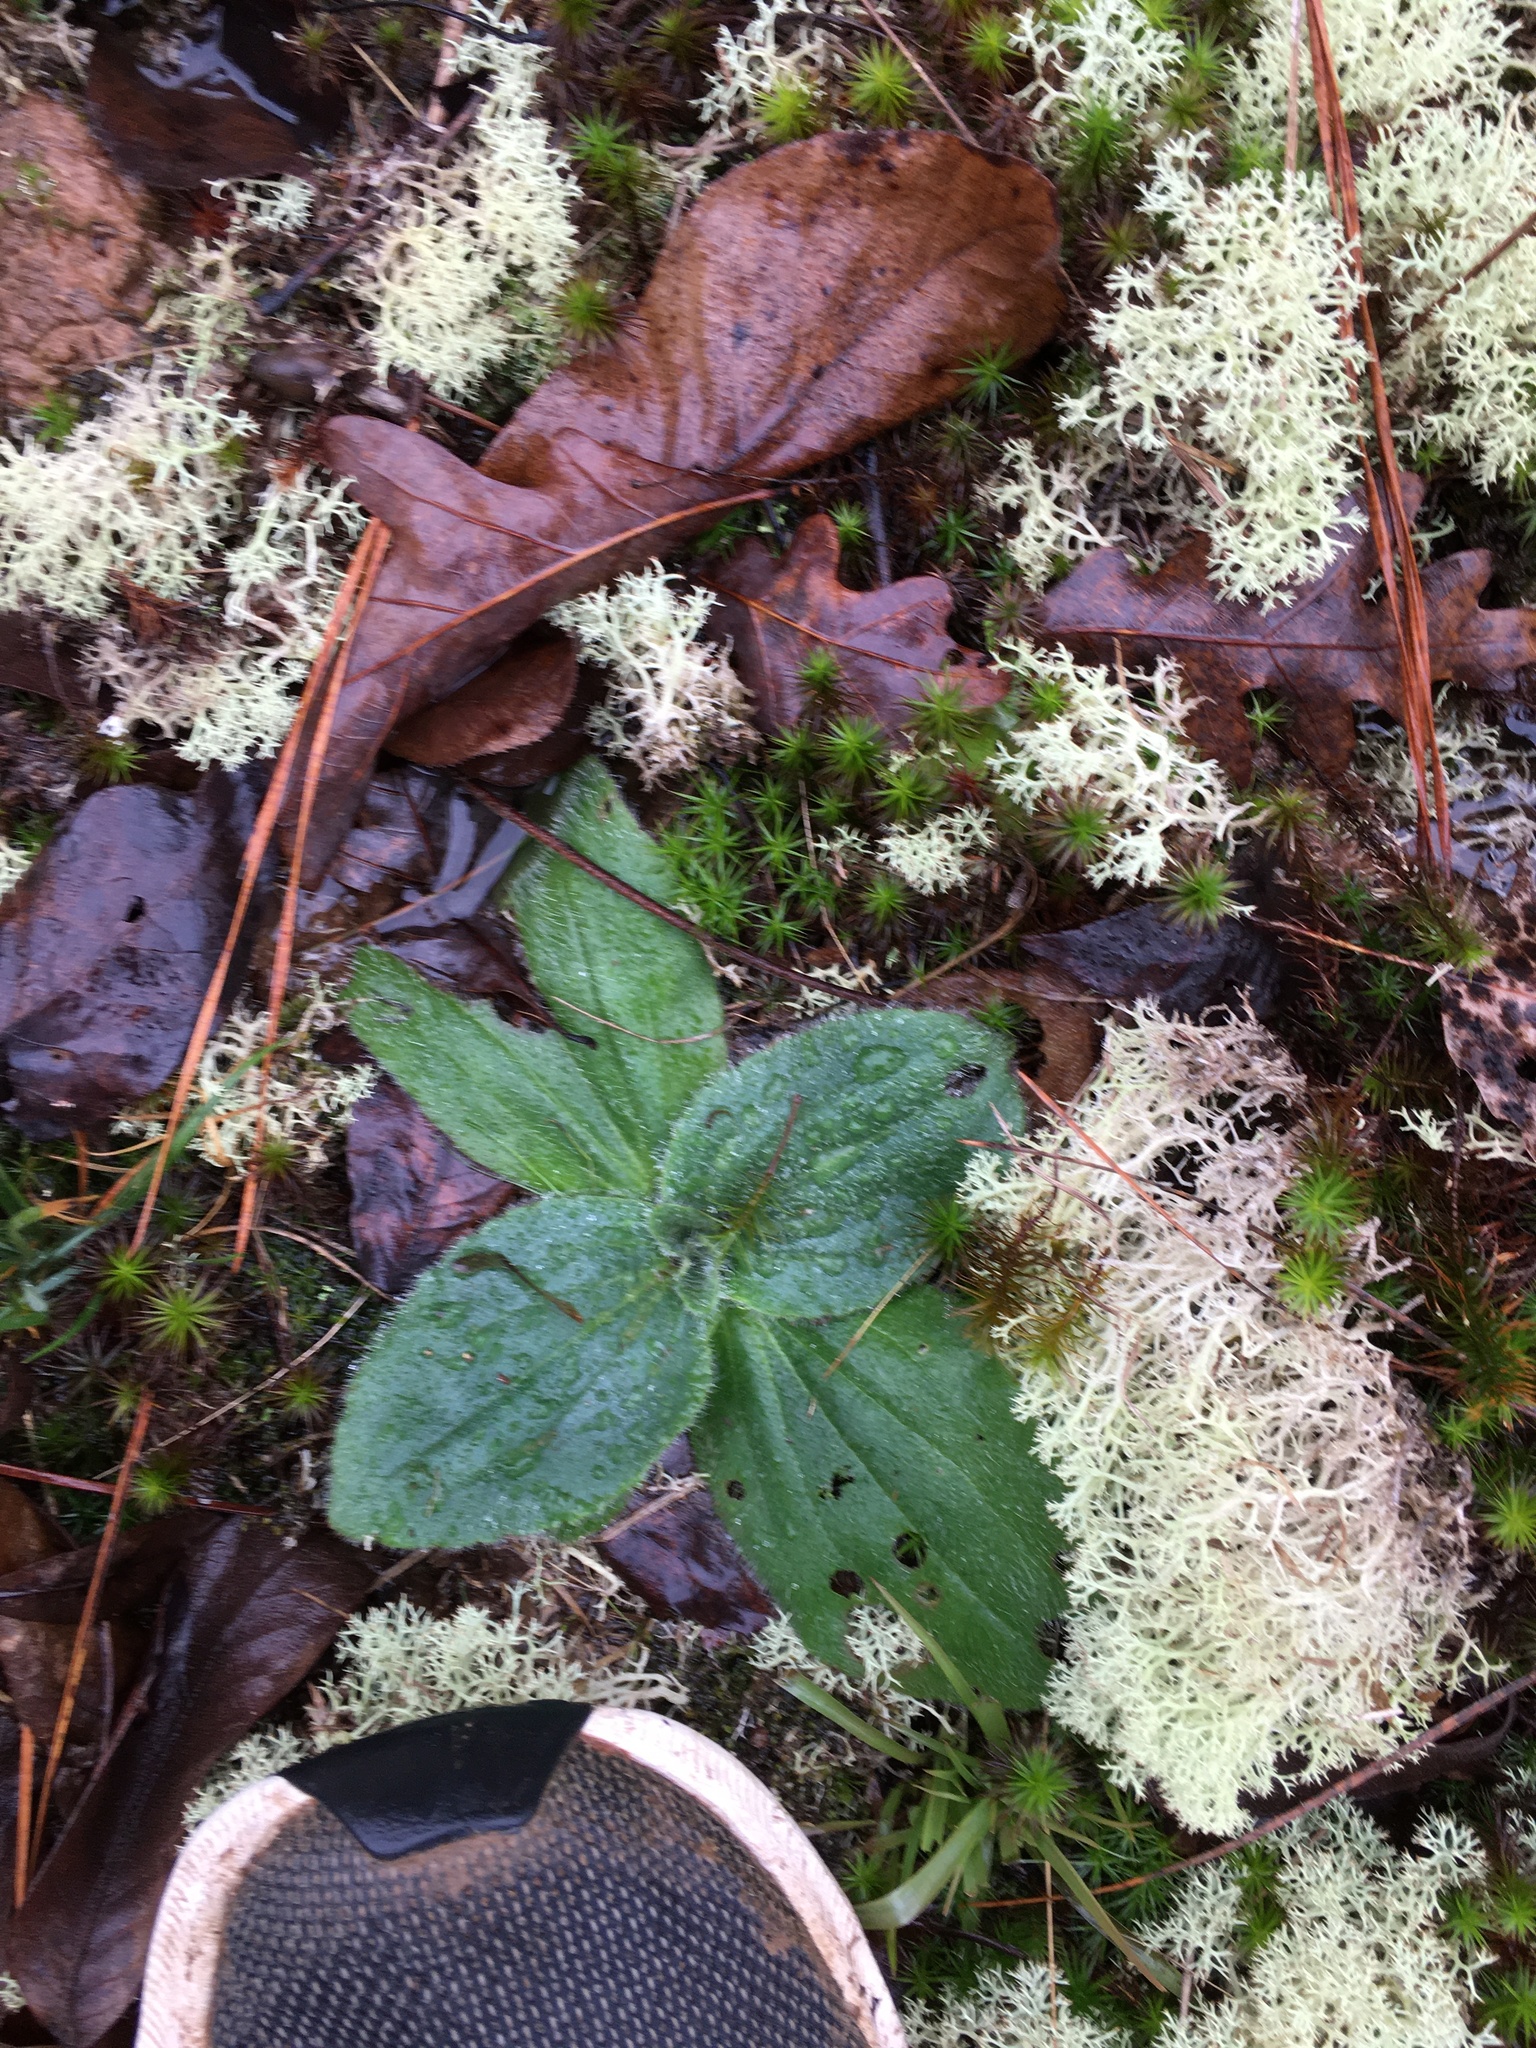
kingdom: Plantae
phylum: Tracheophyta
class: Magnoliopsida
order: Asterales
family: Asteraceae
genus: Arnica
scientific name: Arnica acaulis
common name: Common leopardbane
